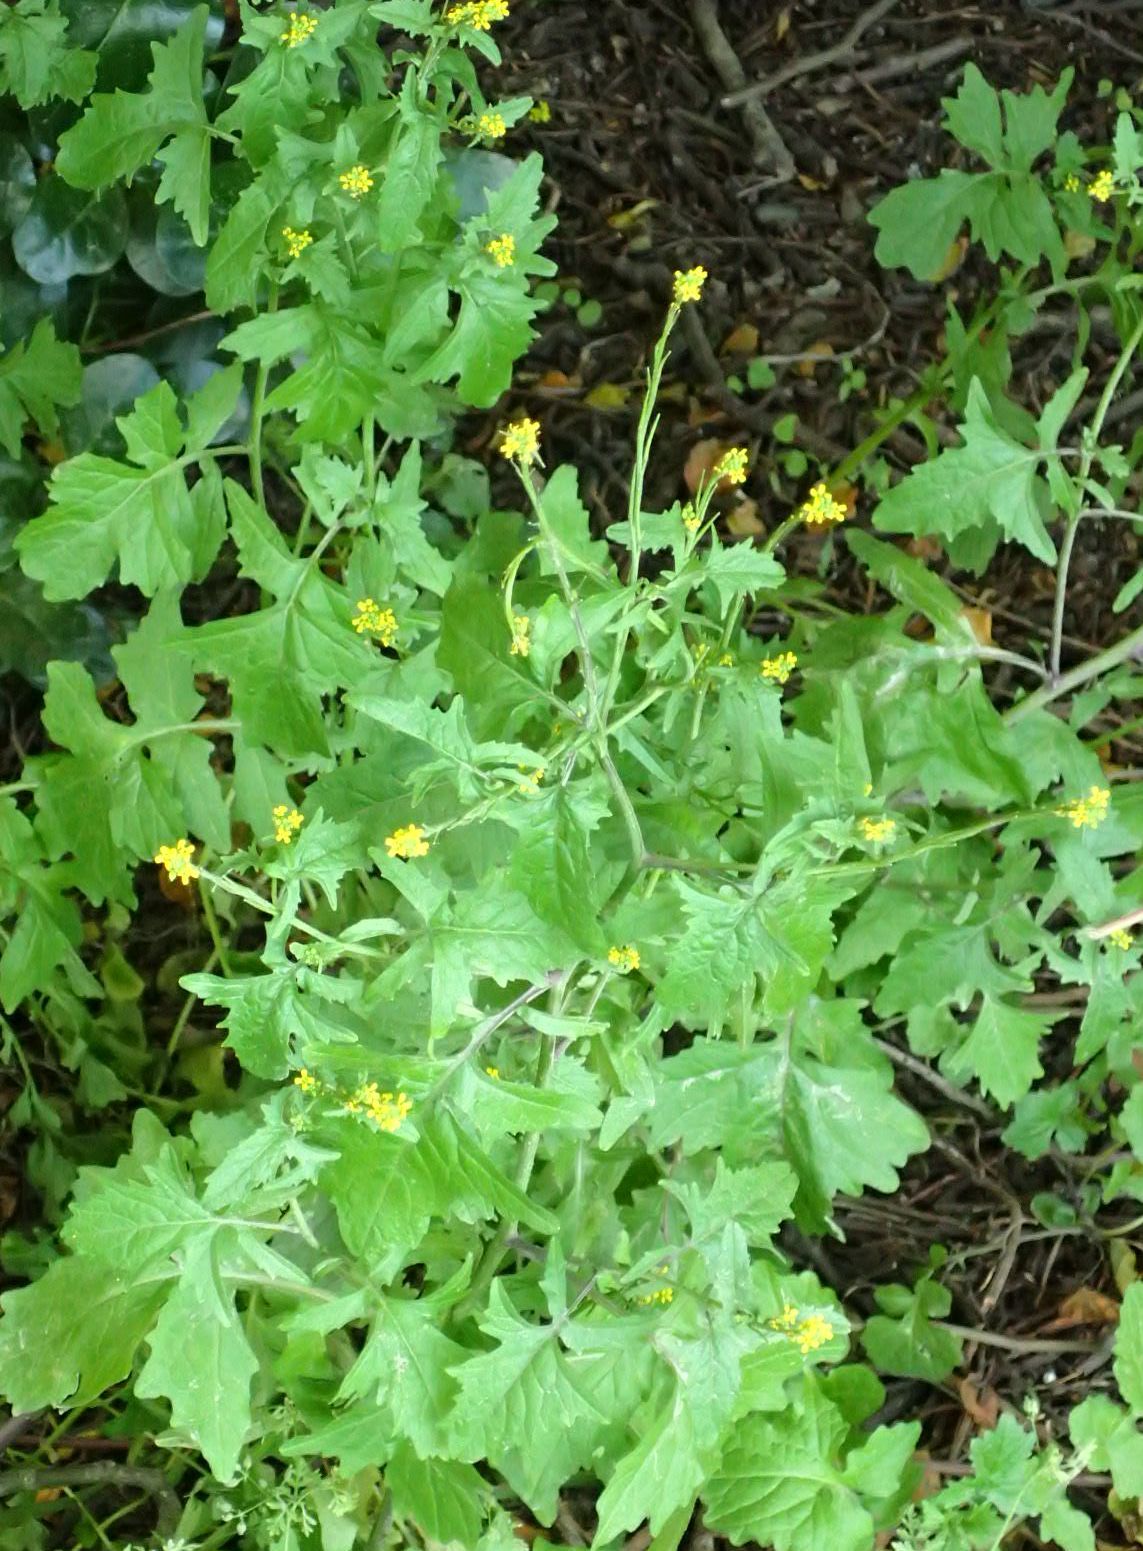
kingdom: Plantae
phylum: Tracheophyta
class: Magnoliopsida
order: Brassicales
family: Brassicaceae
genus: Sisymbrium
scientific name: Sisymbrium officinale
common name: Hedge mustard
